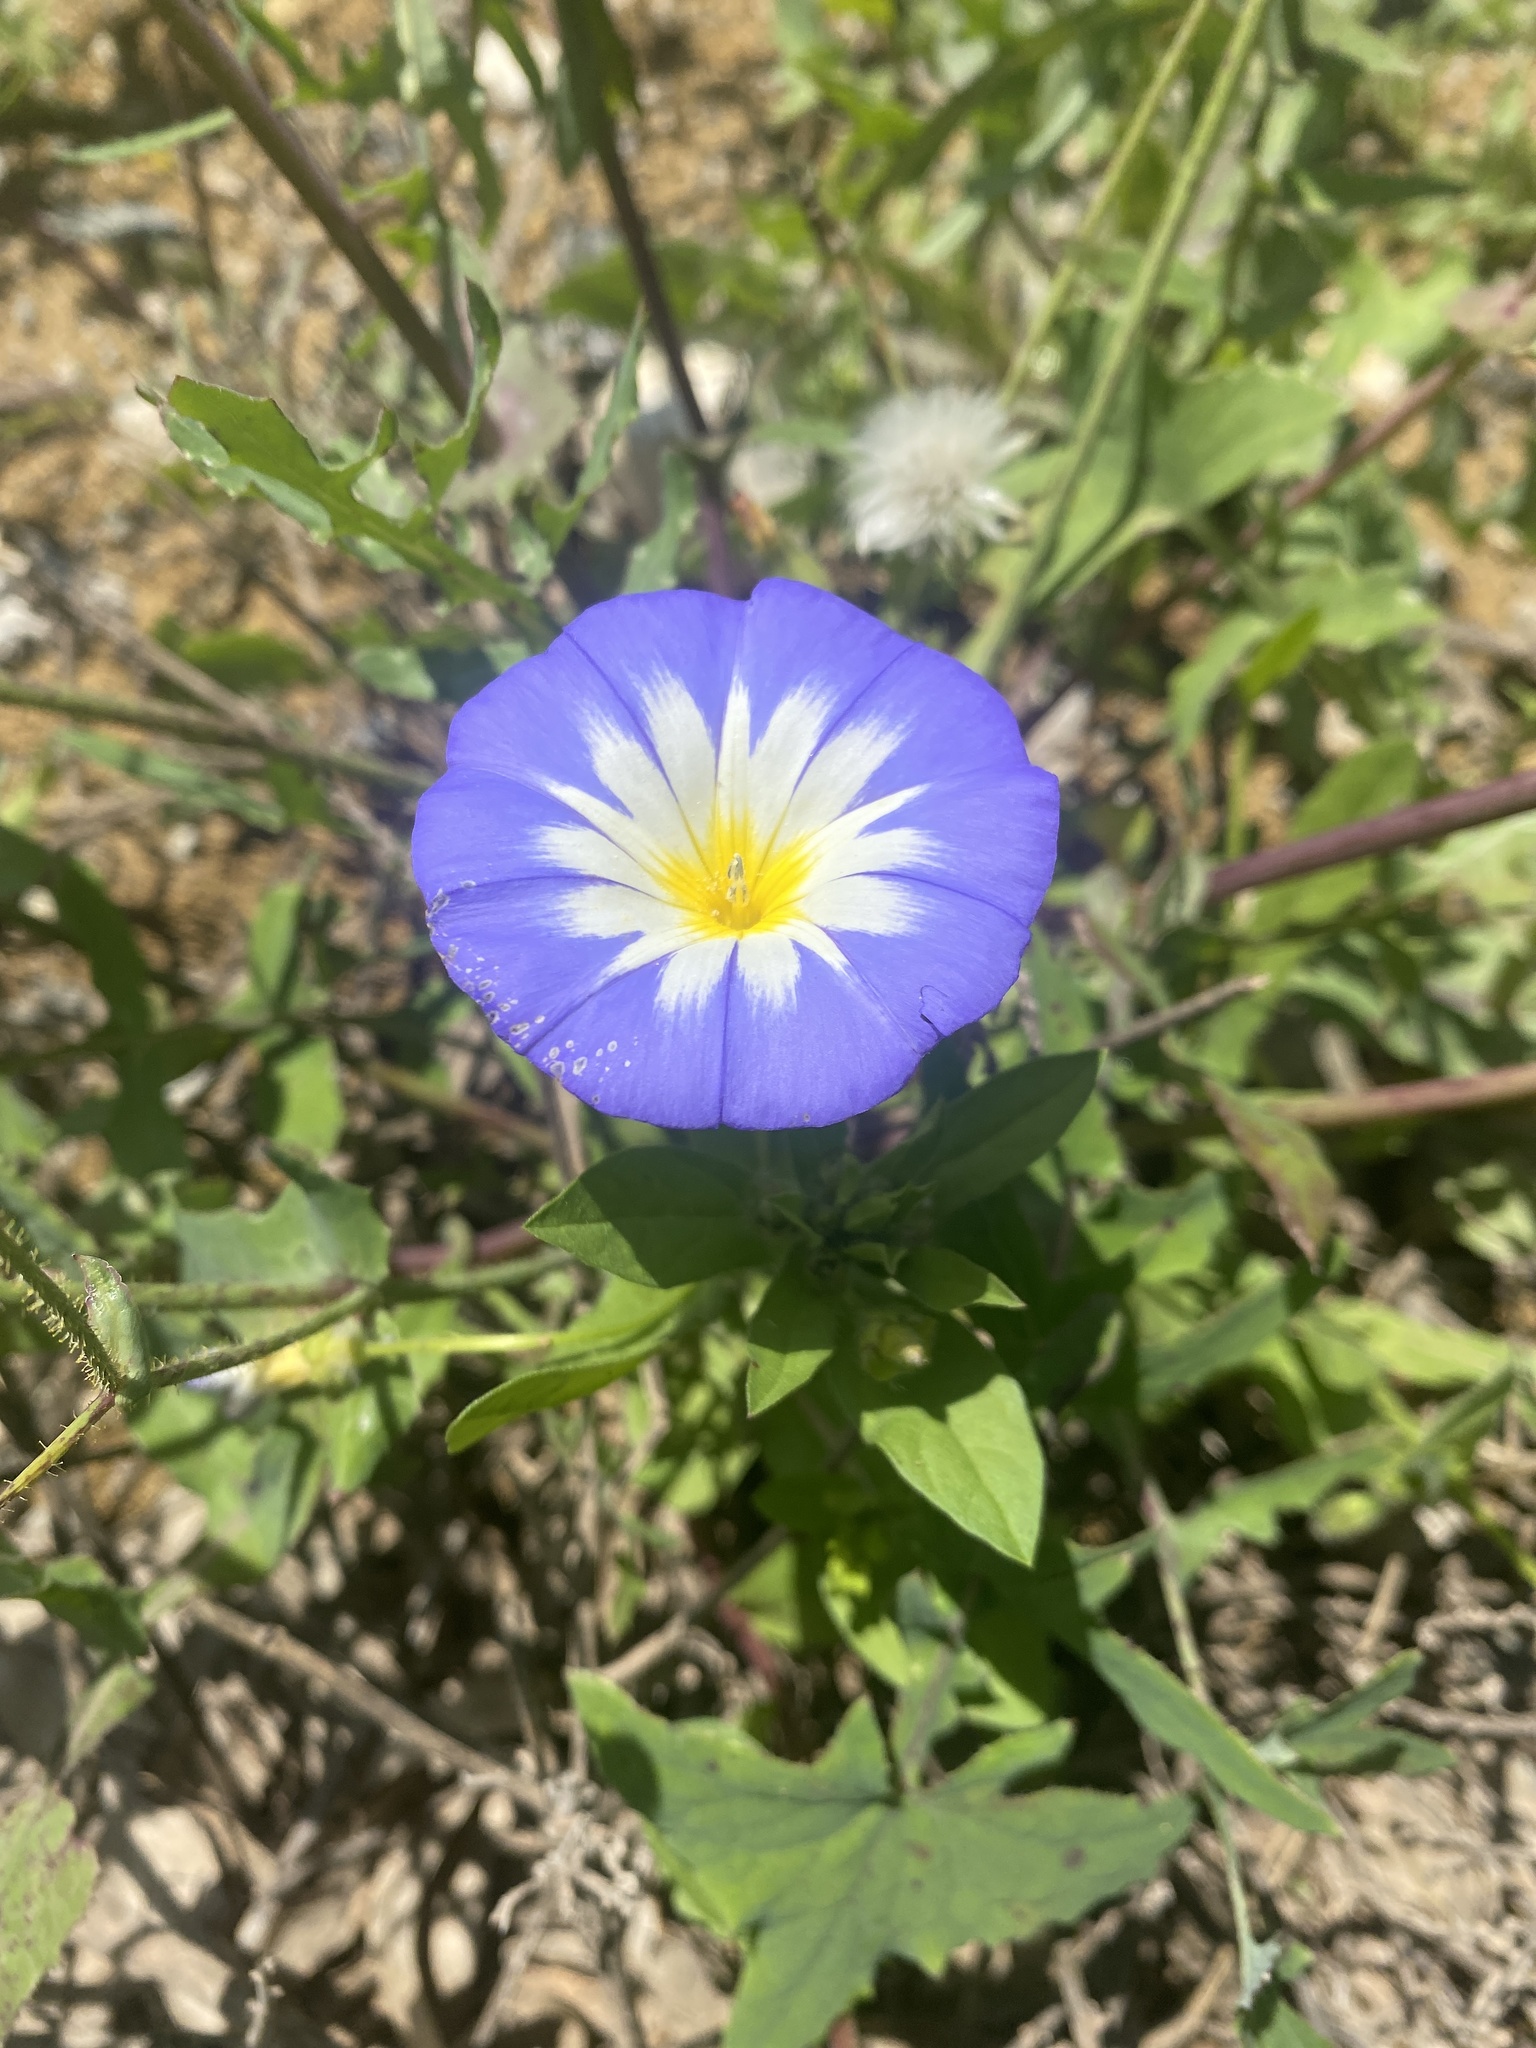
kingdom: Plantae
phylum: Tracheophyta
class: Magnoliopsida
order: Solanales
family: Convolvulaceae
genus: Convolvulus
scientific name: Convolvulus tricolor
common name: Dwarf morning-glory
